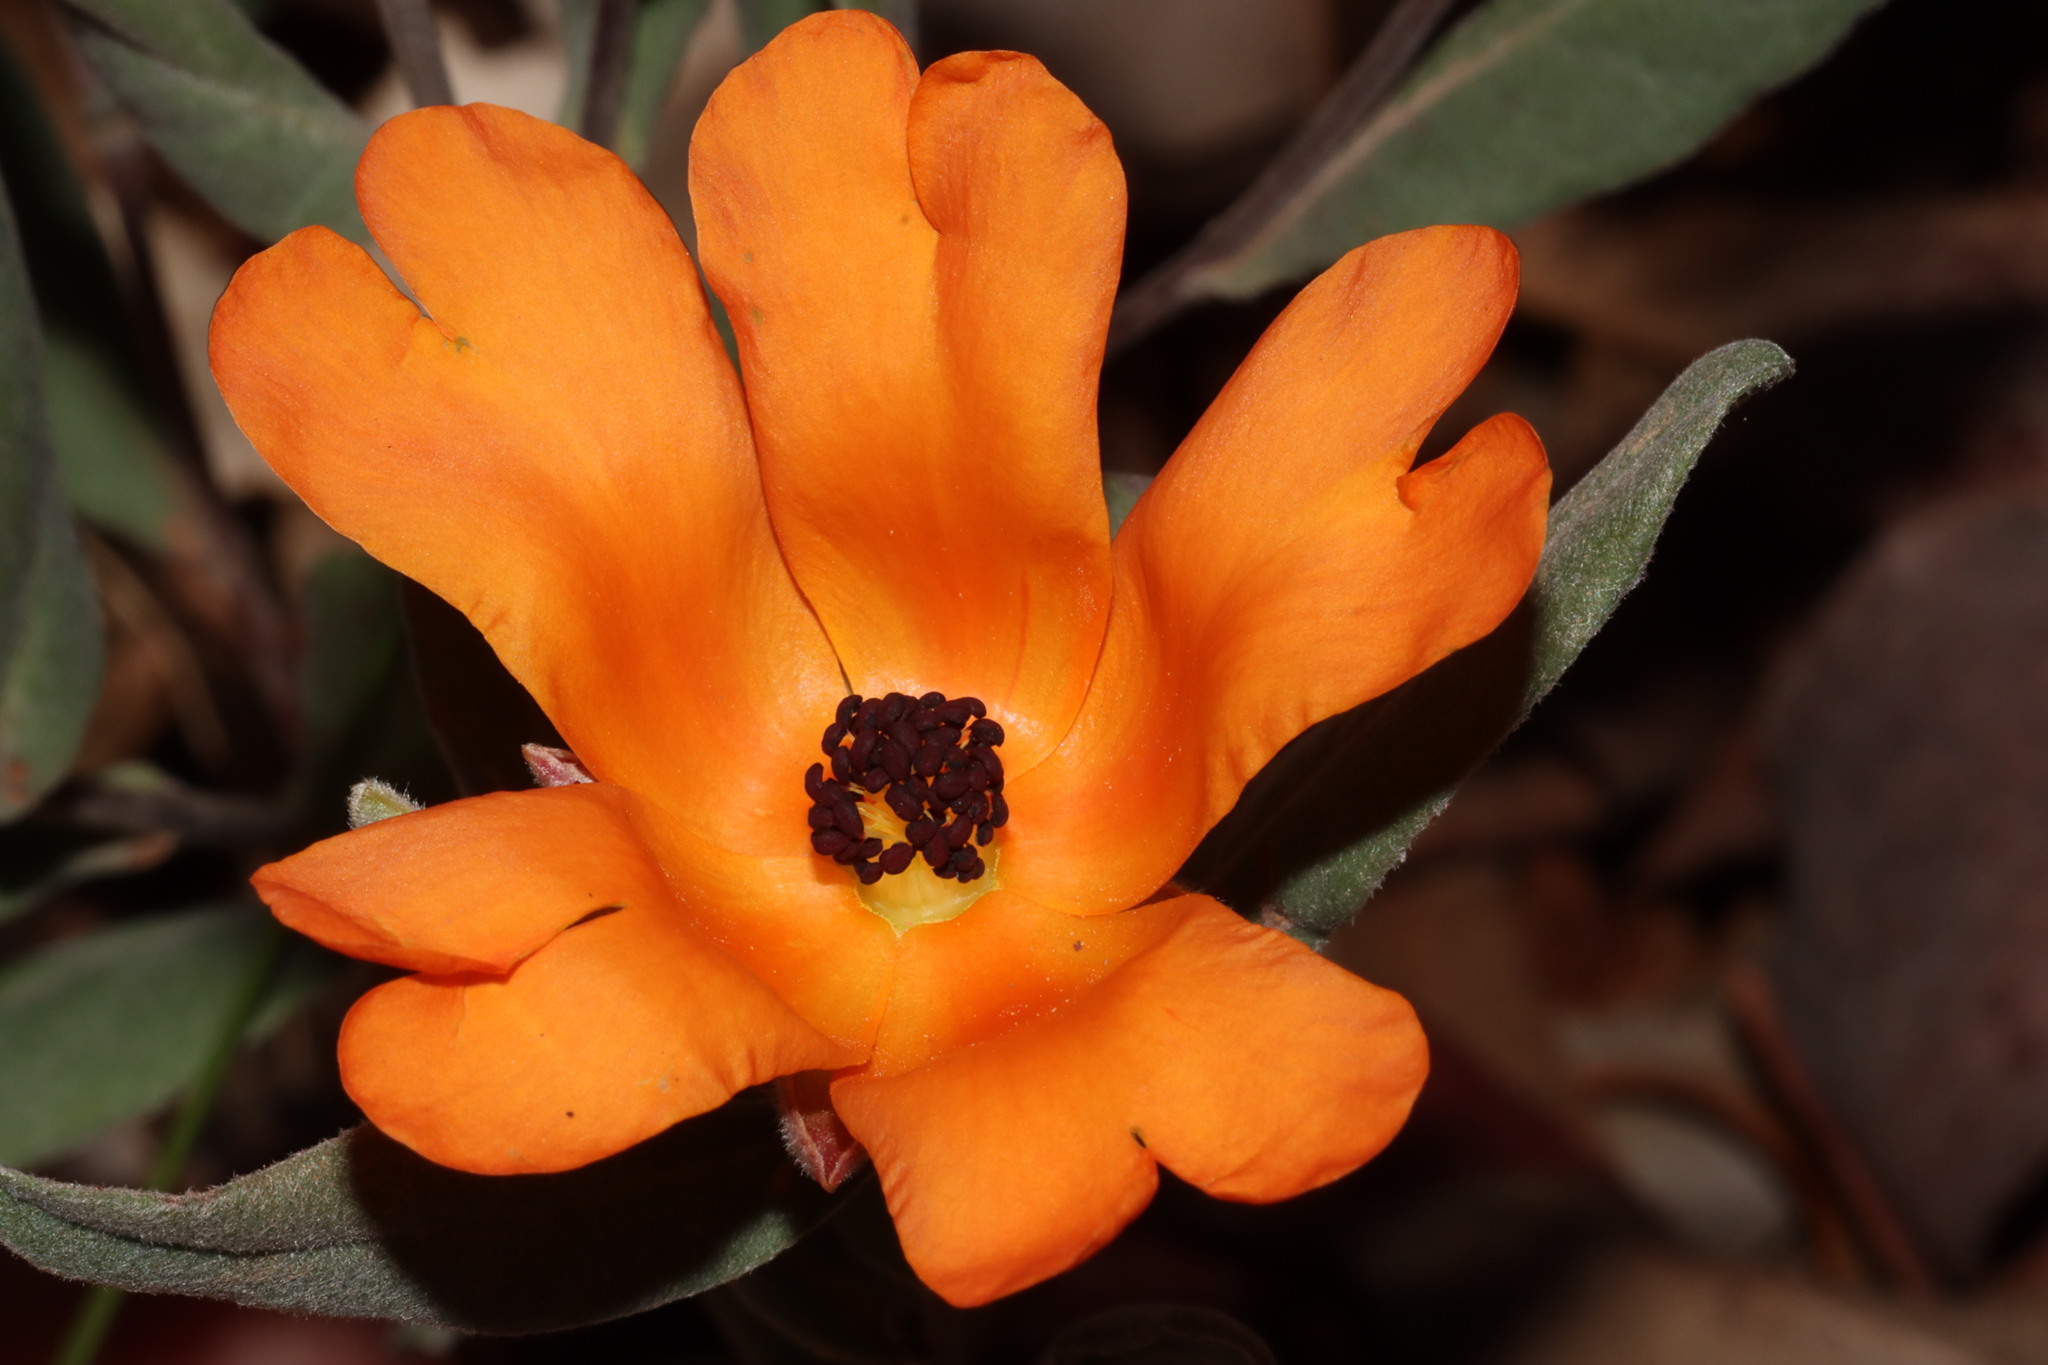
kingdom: Plantae
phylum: Tracheophyta
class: Magnoliopsida
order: Dilleniales
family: Dilleniaceae
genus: Hibbertia
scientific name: Hibbertia miniata
